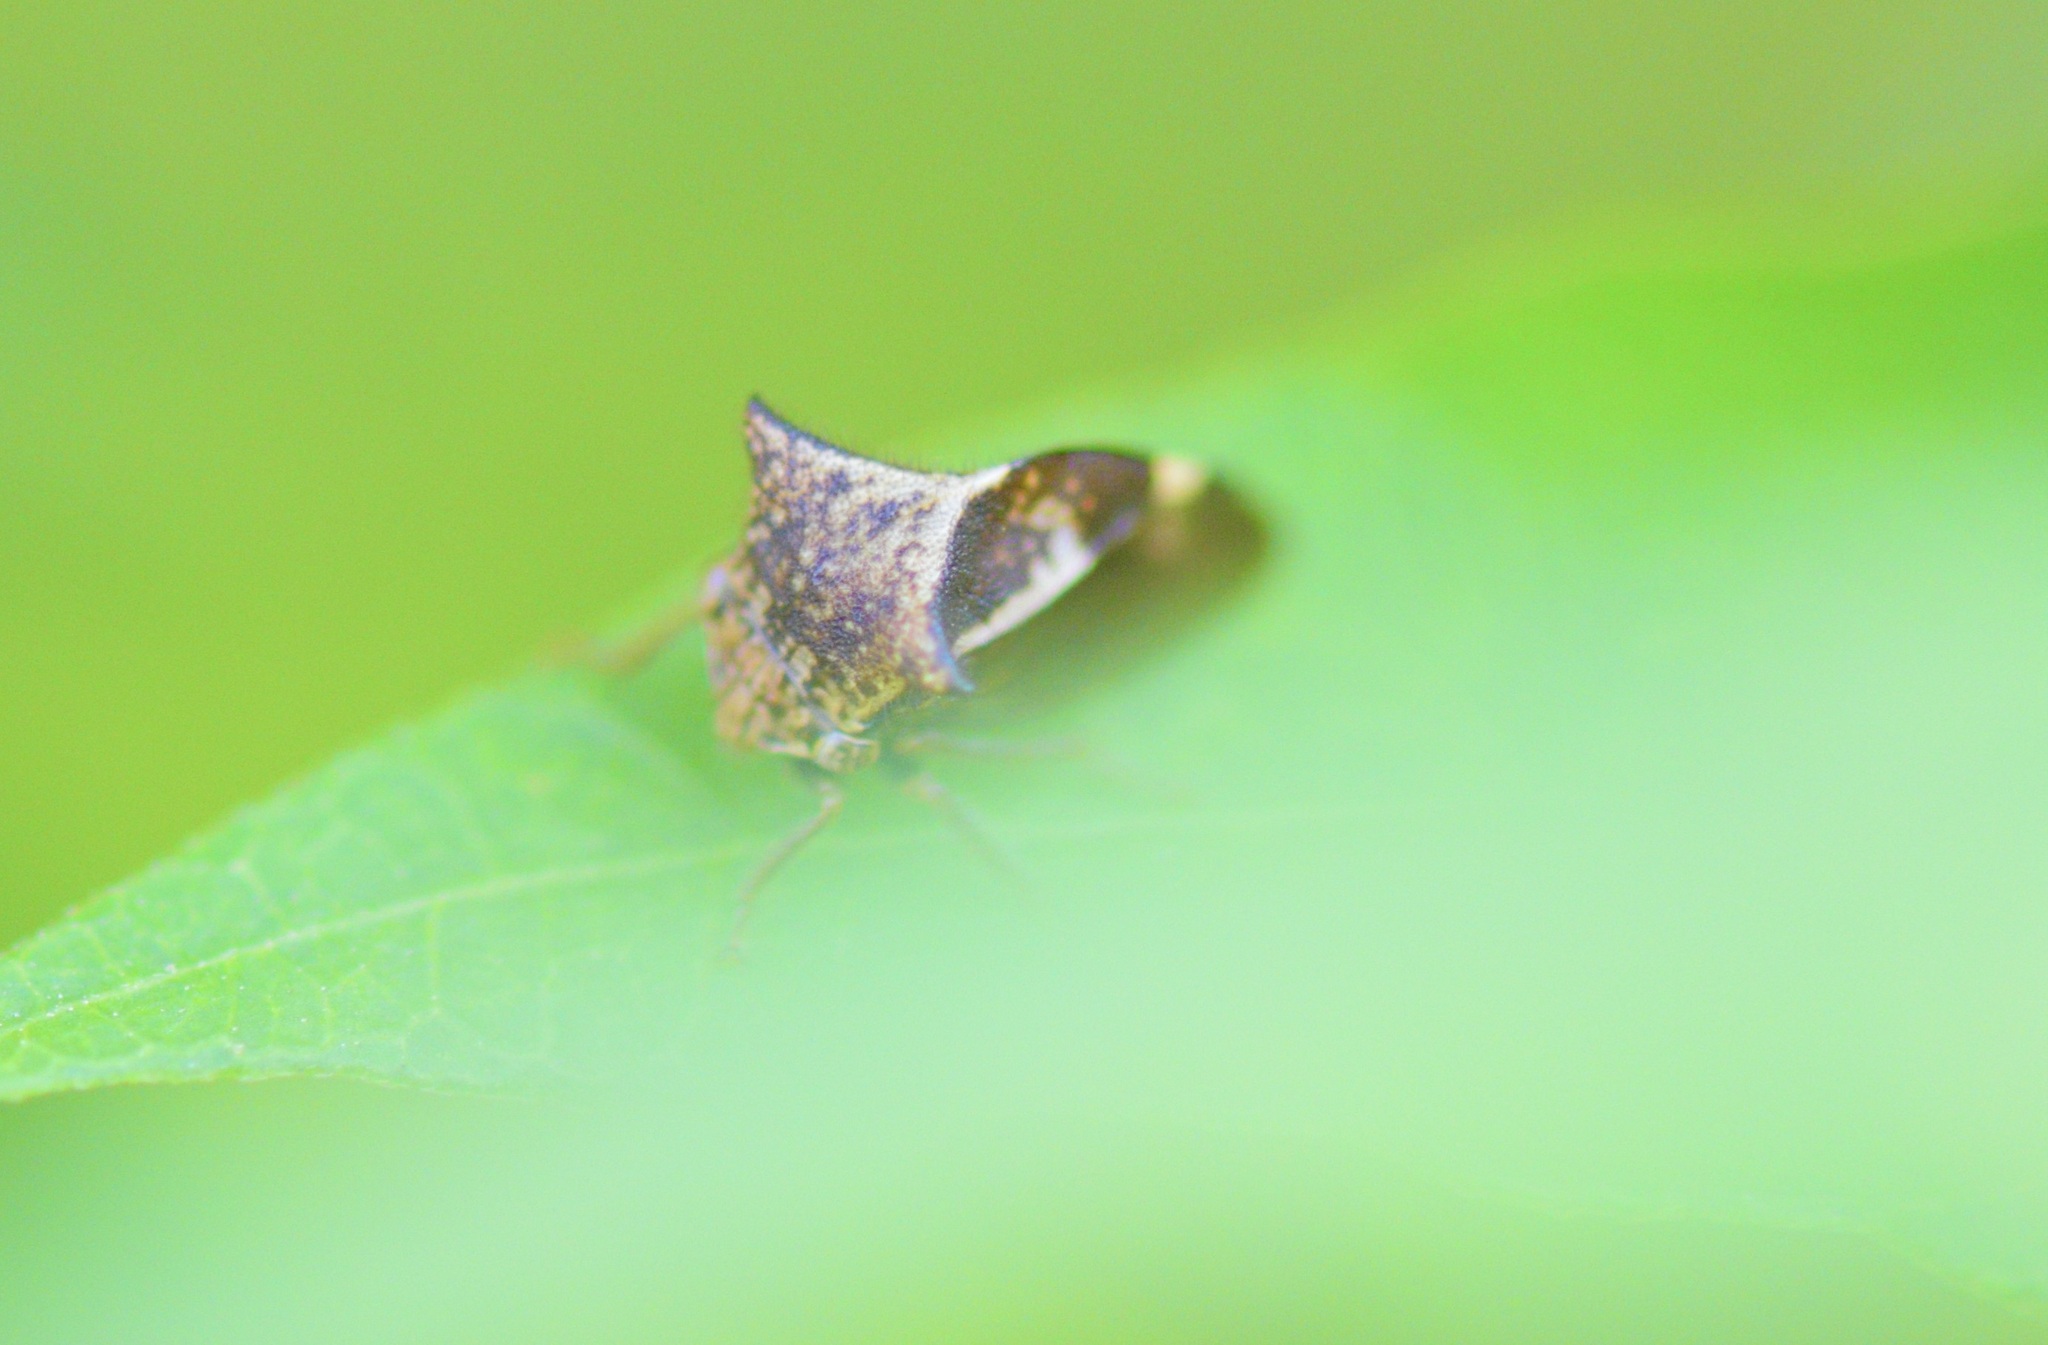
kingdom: Animalia
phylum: Arthropoda
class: Insecta
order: Hemiptera
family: Membracidae
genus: Stictocephala
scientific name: Stictocephala diceros
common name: Two-horned treehopper
